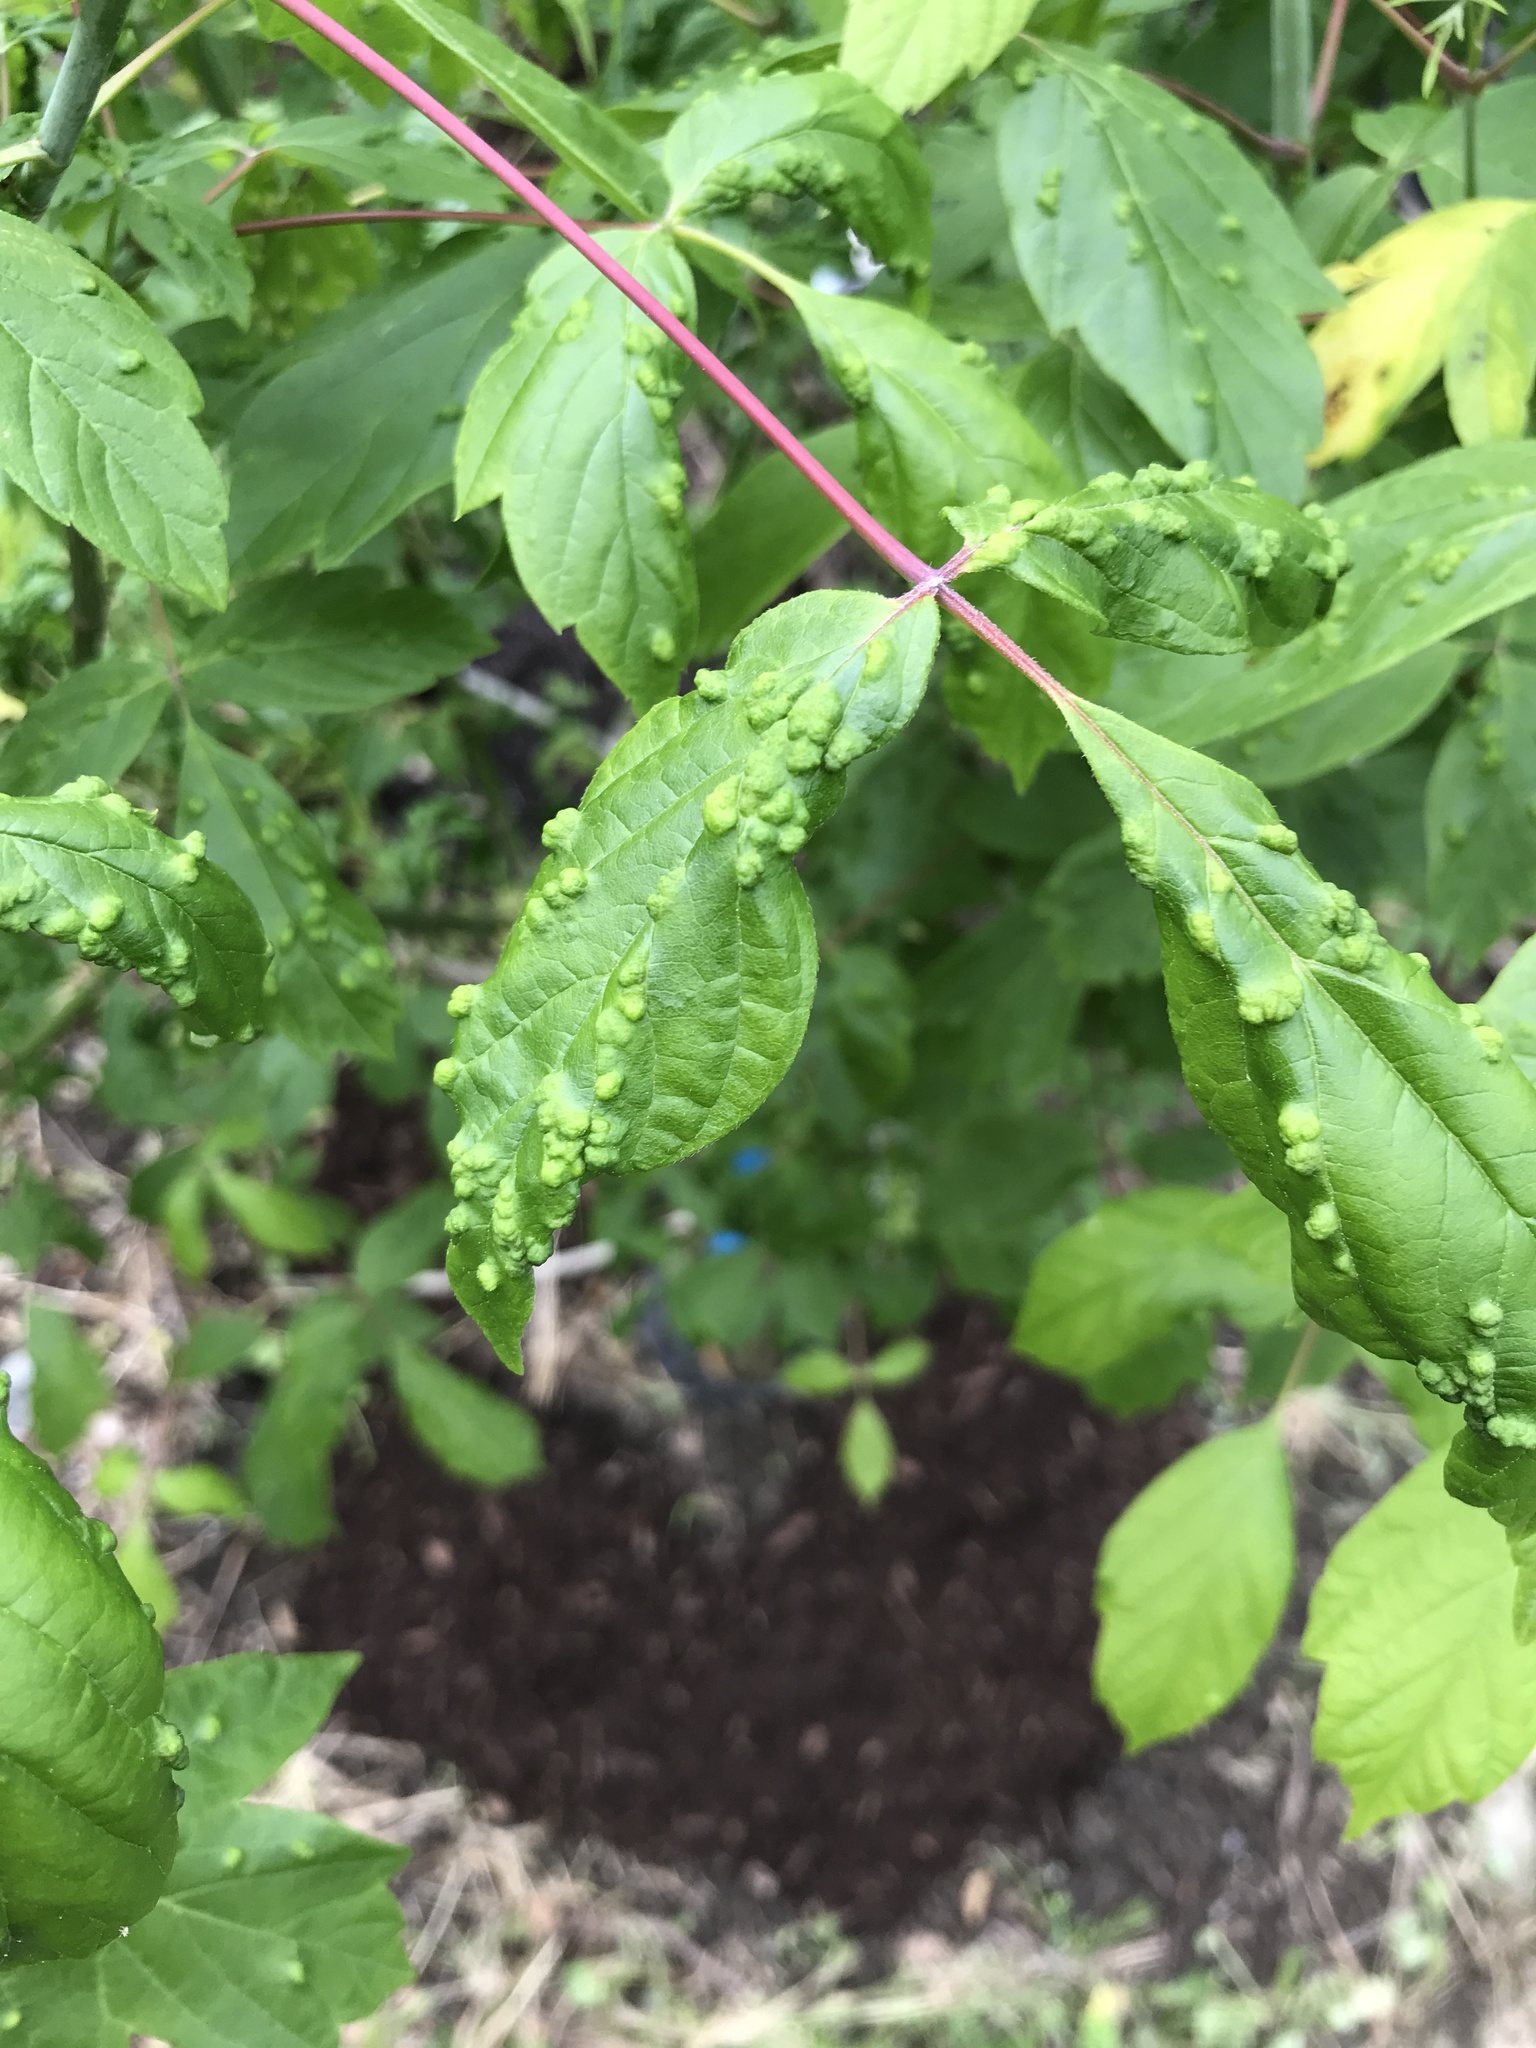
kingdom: Animalia
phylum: Arthropoda
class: Arachnida
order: Trombidiformes
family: Eriophyidae
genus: Aceria
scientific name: Aceria
